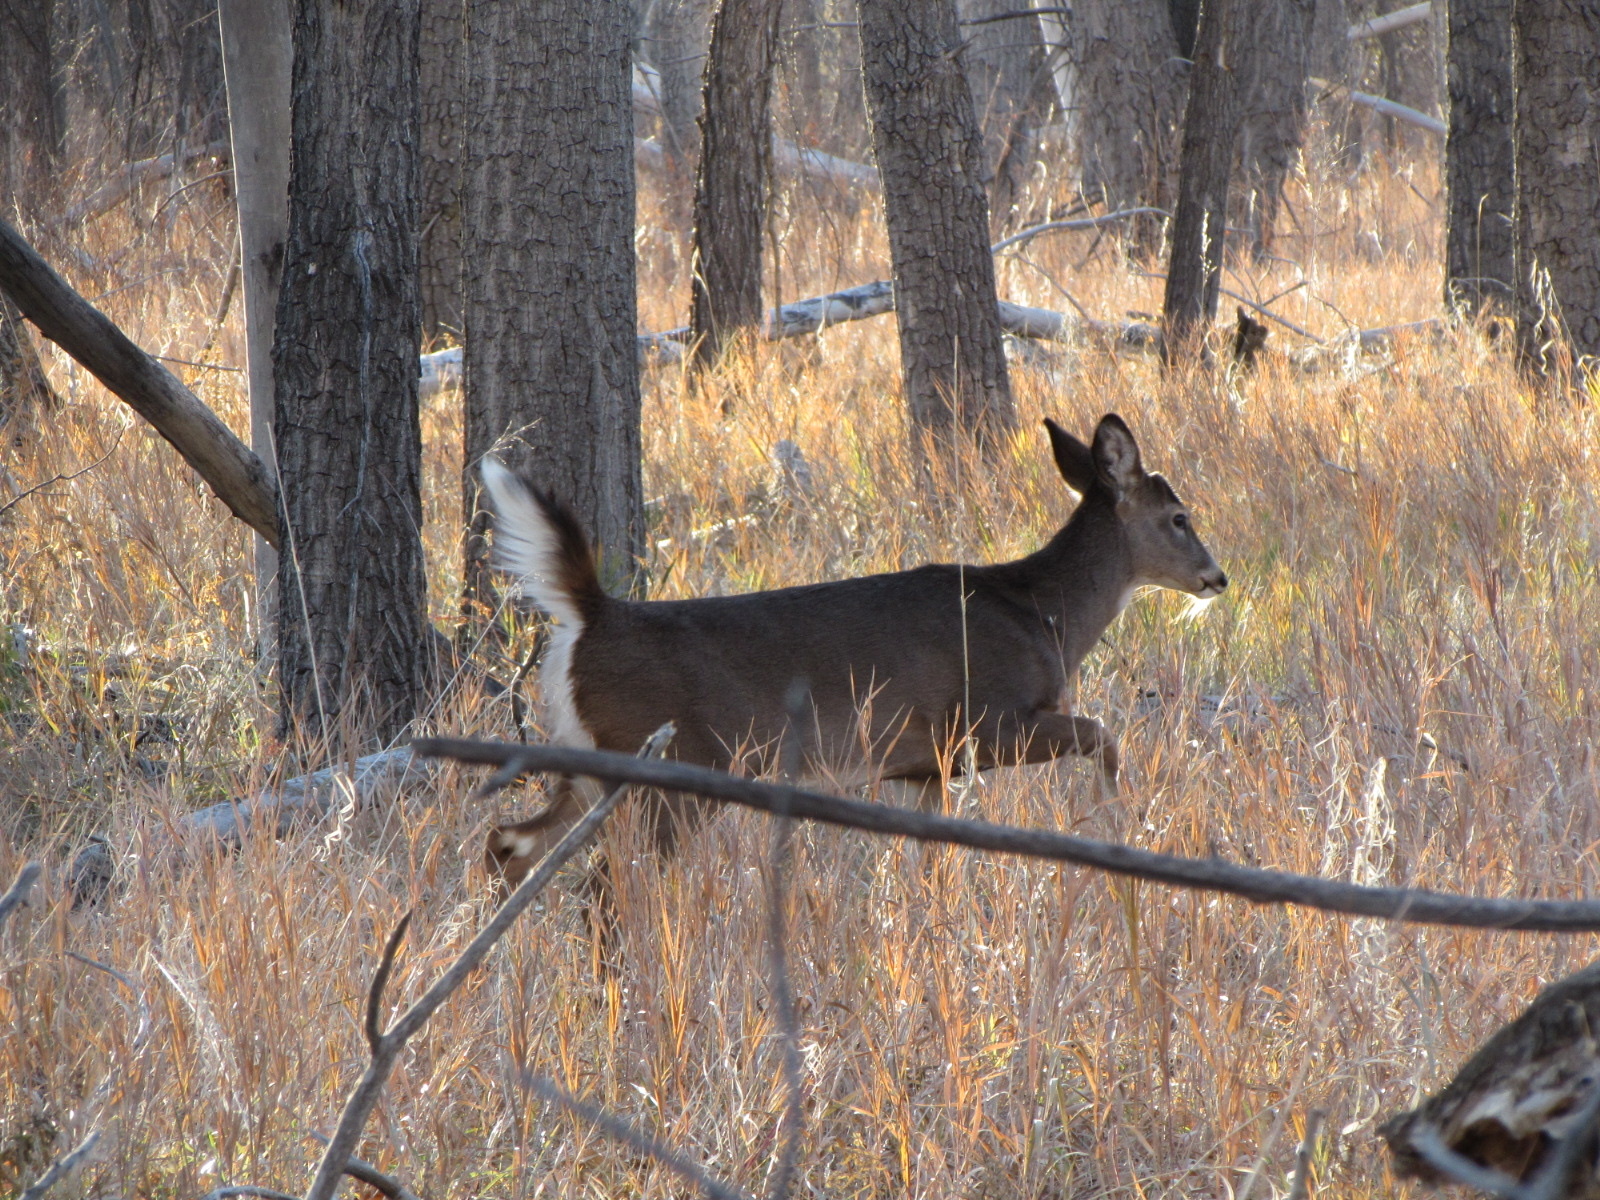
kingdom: Animalia
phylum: Chordata
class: Mammalia
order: Artiodactyla
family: Cervidae
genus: Odocoileus
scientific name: Odocoileus virginianus
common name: White-tailed deer
